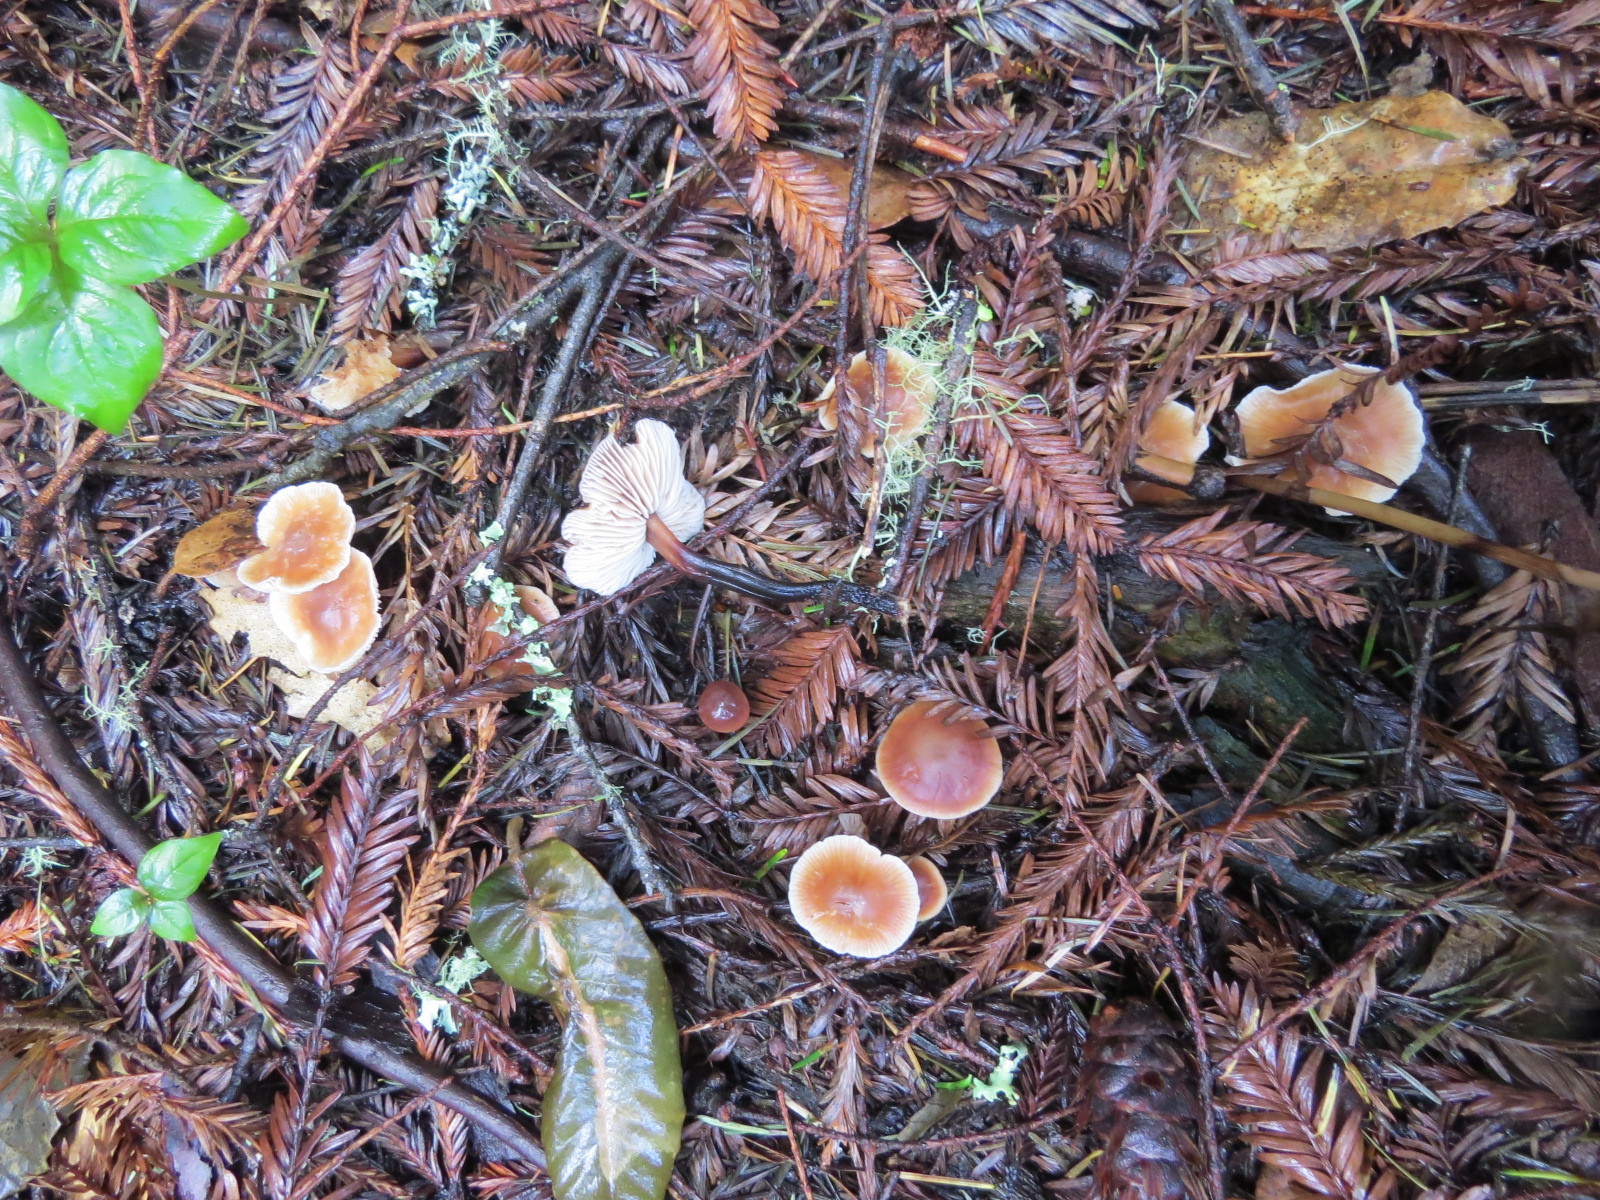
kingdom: Fungi
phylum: Basidiomycota
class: Agaricomycetes
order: Agaricales
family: Omphalotaceae
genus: Gymnopus
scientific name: Gymnopus brassicolens
